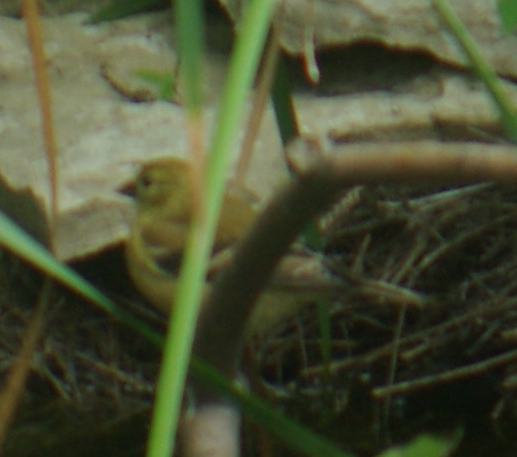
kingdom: Animalia
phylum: Chordata
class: Aves
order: Passeriformes
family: Fringillidae
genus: Spinus
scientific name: Spinus tristis
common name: American goldfinch
